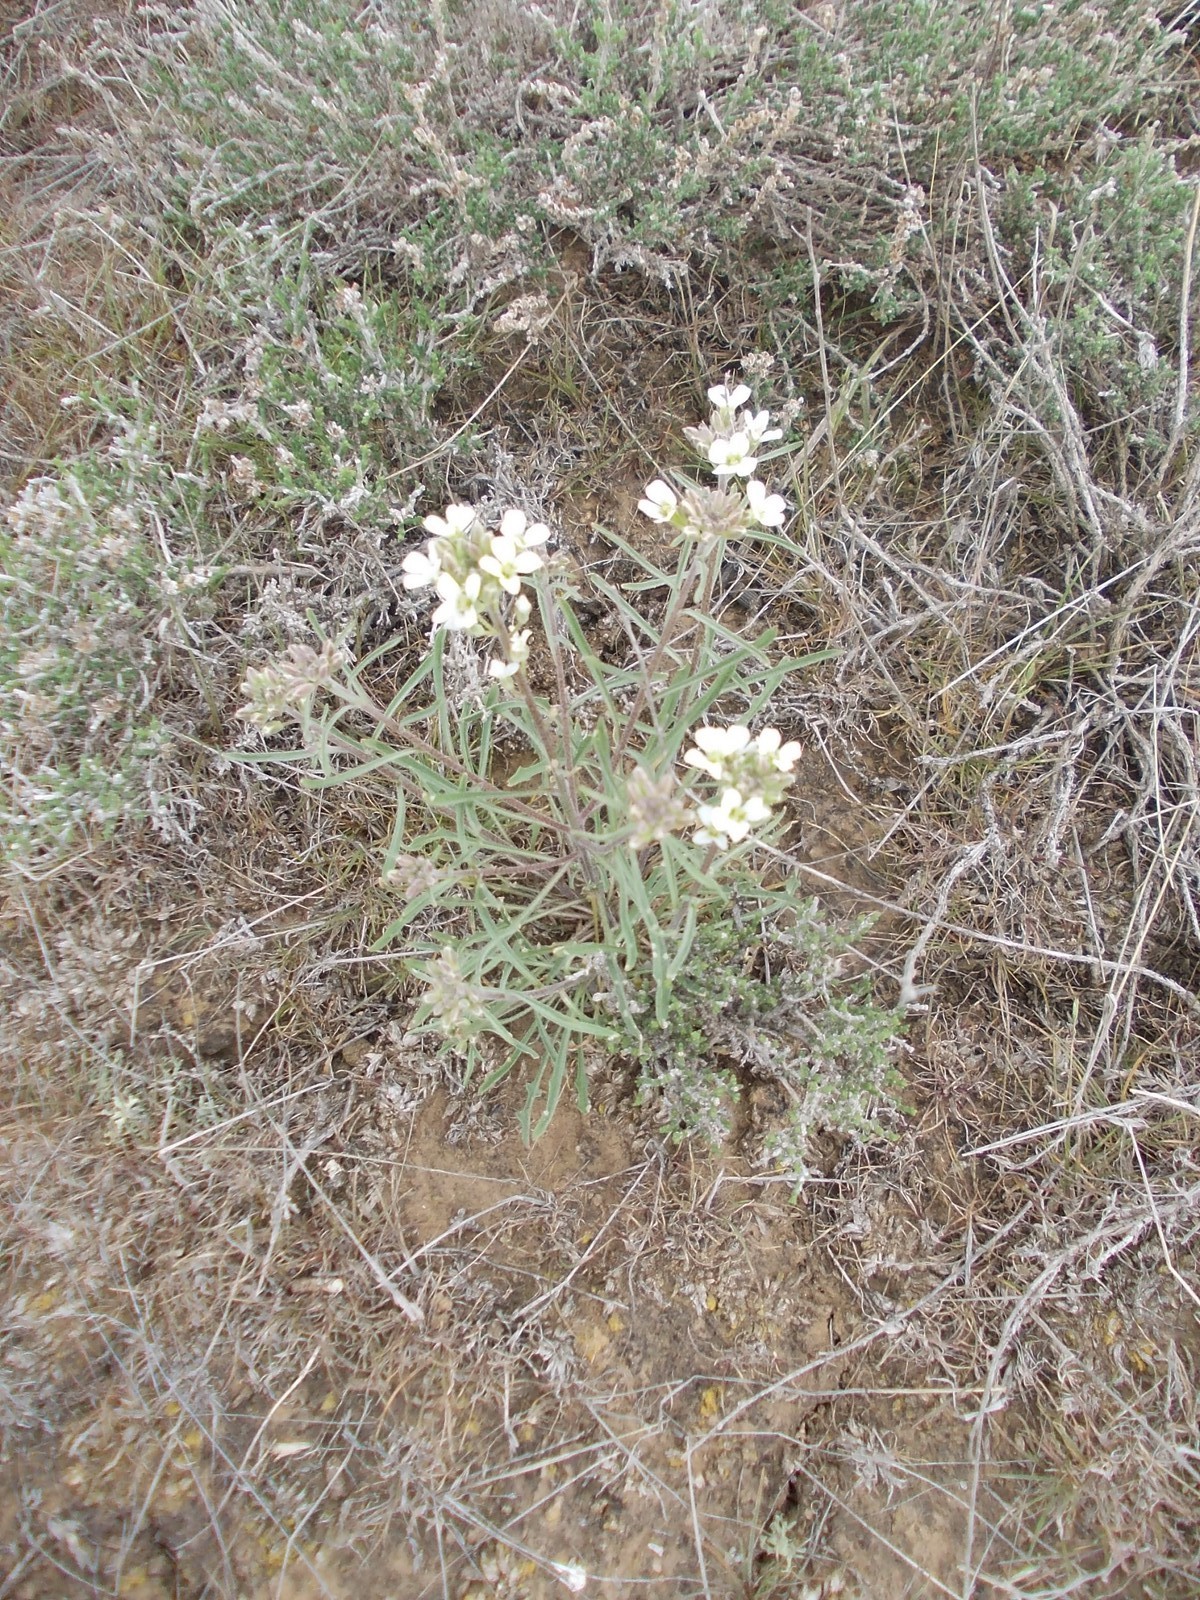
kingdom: Plantae
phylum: Tracheophyta
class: Magnoliopsida
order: Brassicales
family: Brassicaceae
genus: Erysimum
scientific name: Erysimum leucanthemum
